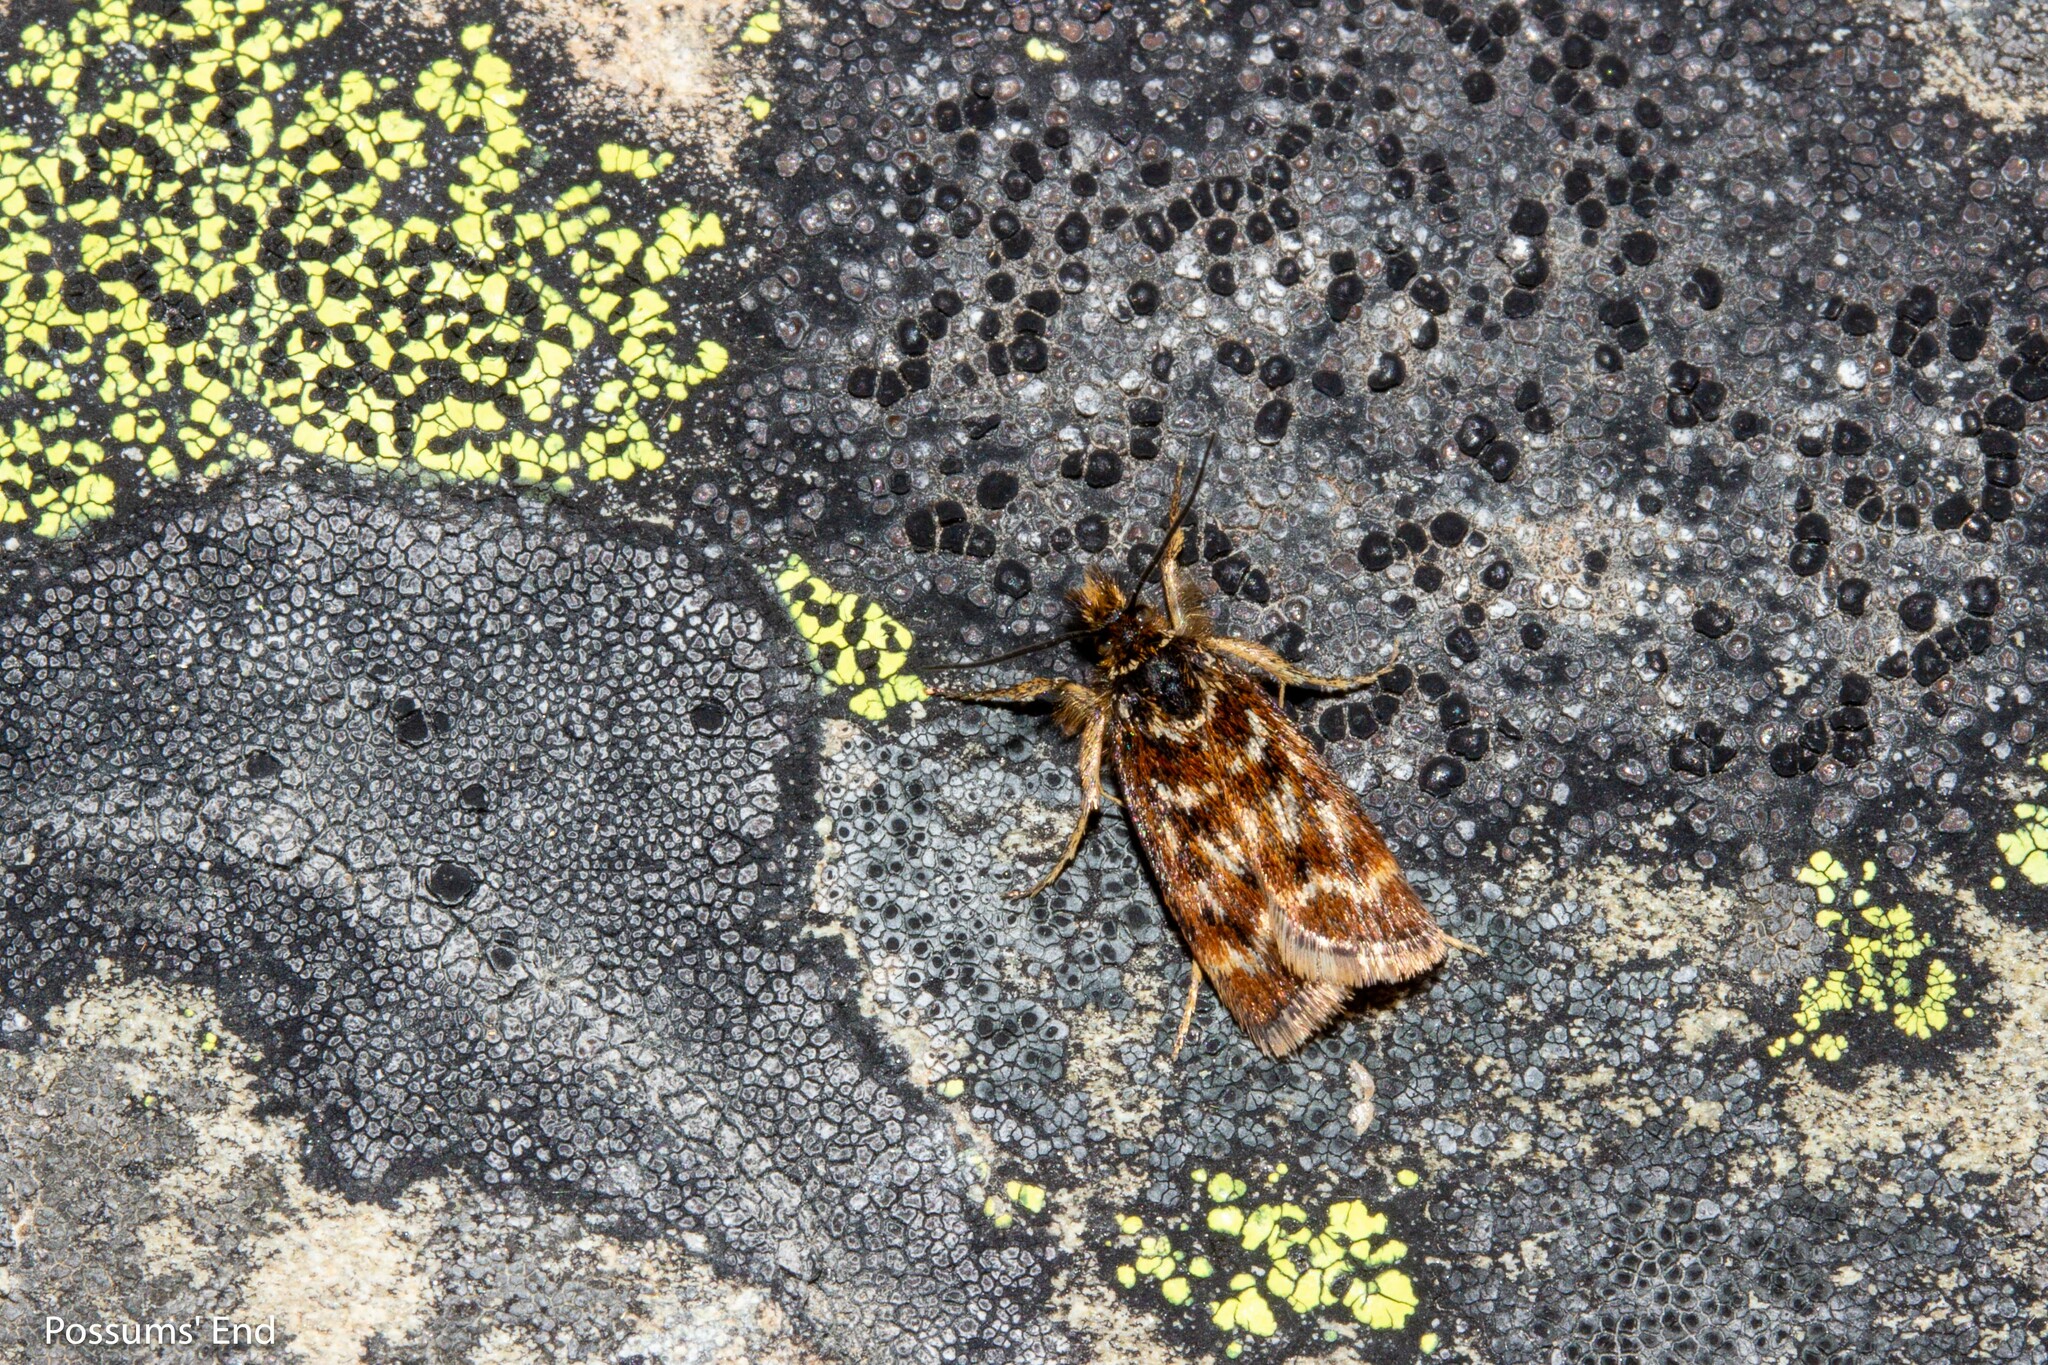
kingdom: Animalia
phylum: Arthropoda
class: Insecta
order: Lepidoptera
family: Crambidae
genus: Orocrambus
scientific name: Orocrambus scoparioides
